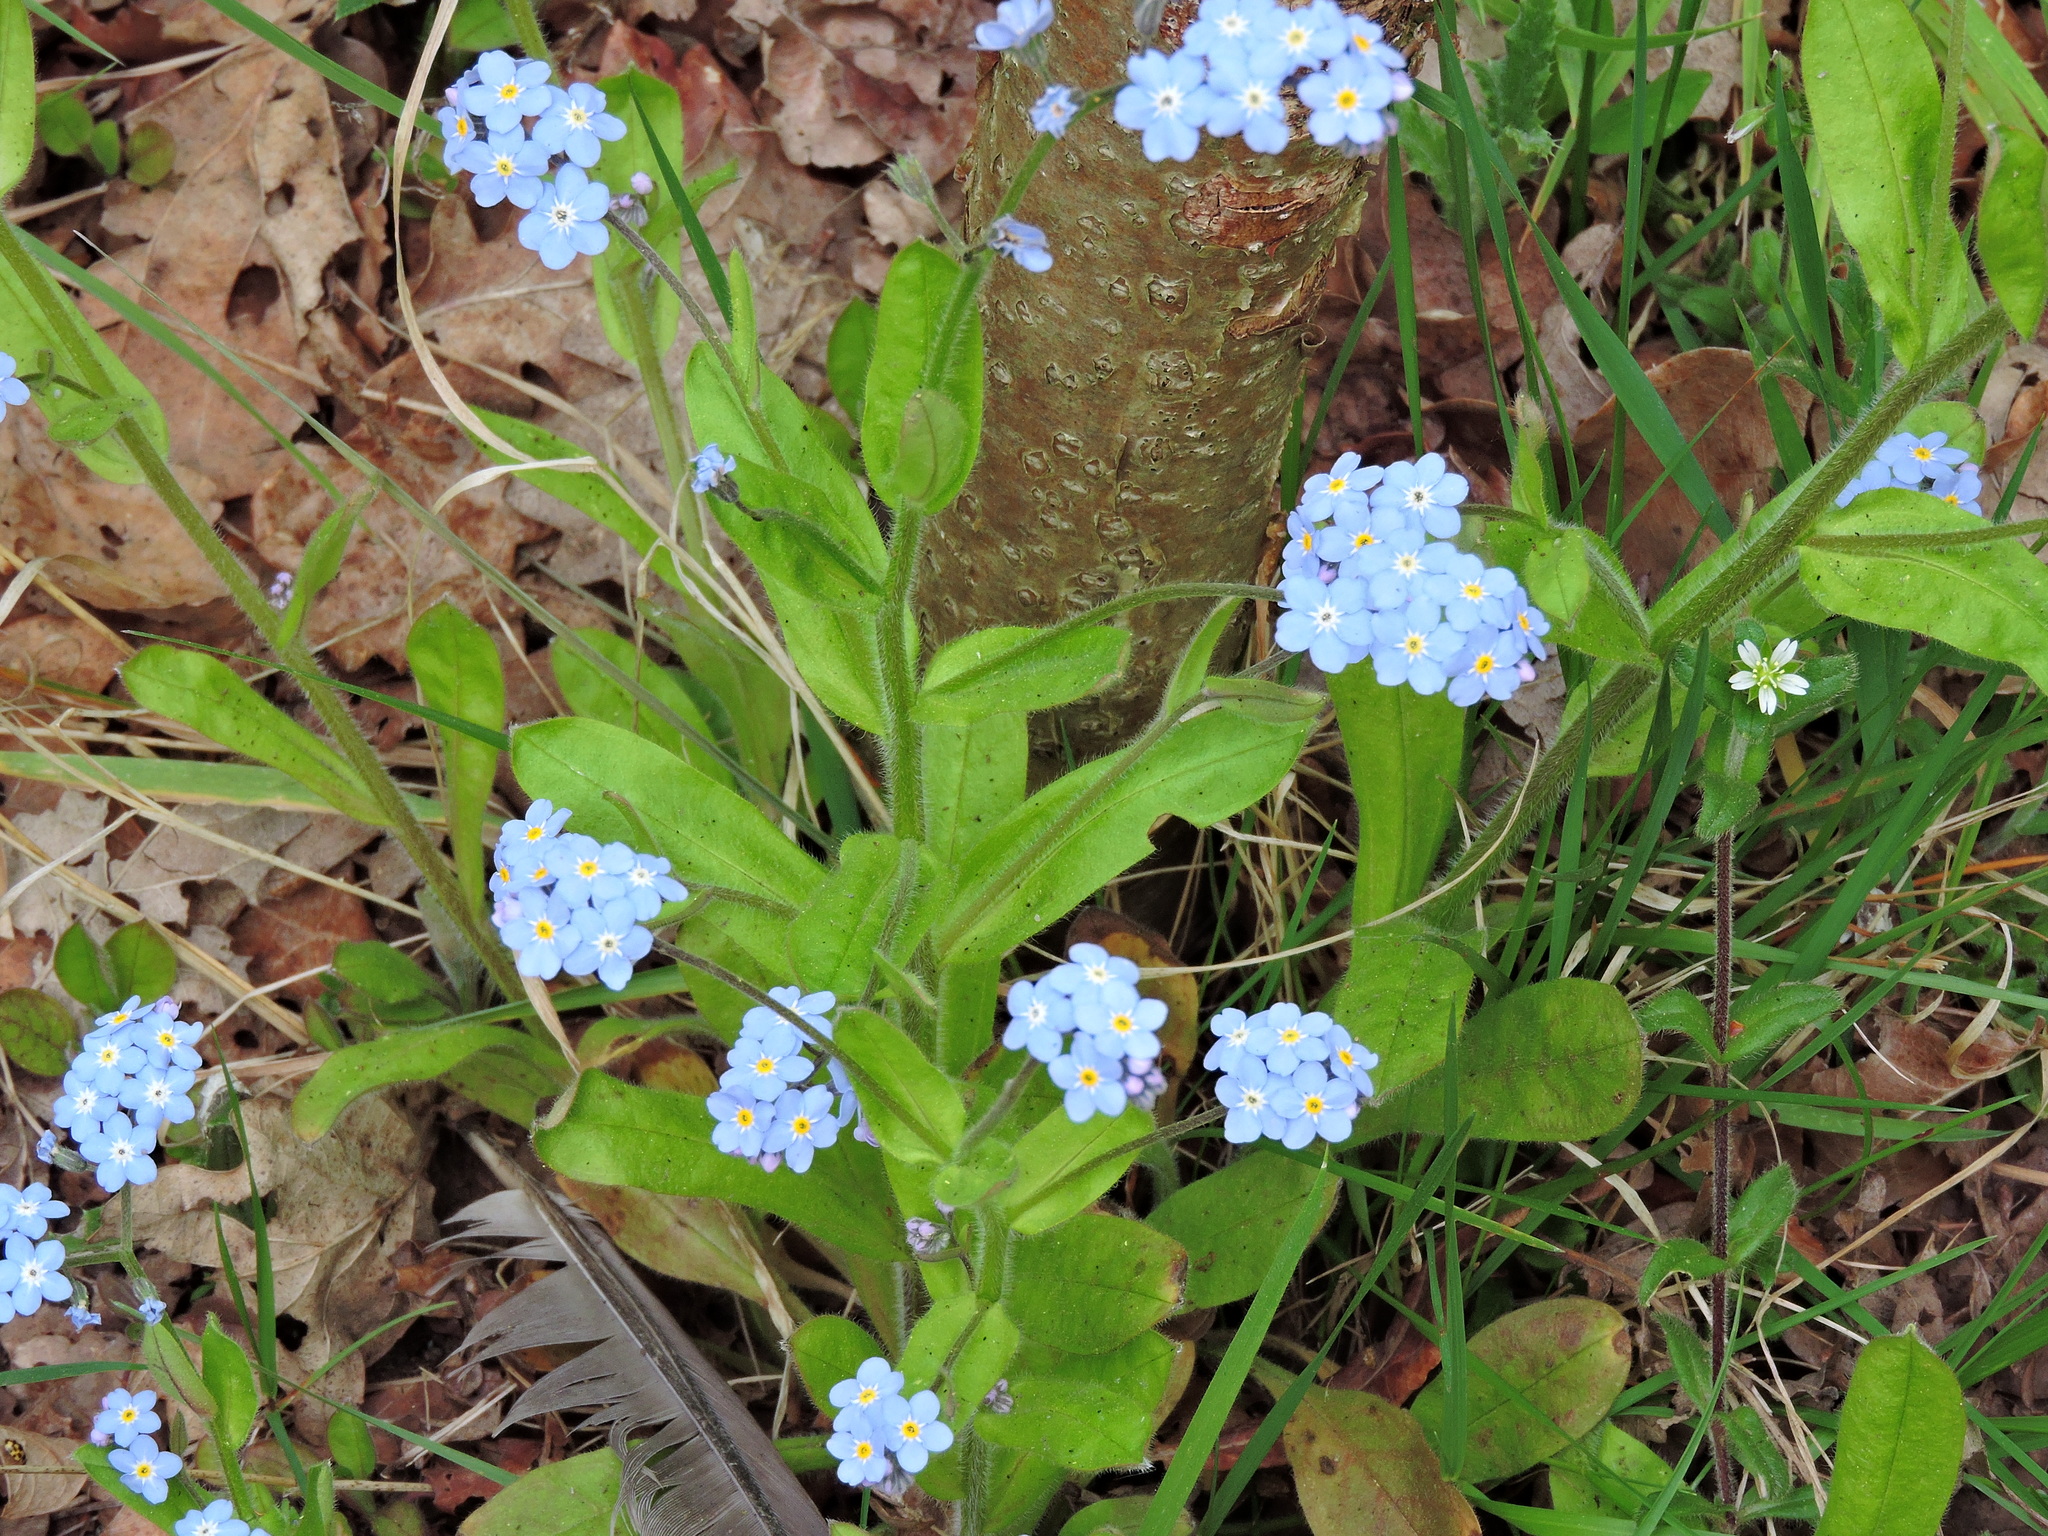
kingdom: Plantae
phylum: Tracheophyta
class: Magnoliopsida
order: Boraginales
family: Boraginaceae
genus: Myosotis
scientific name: Myosotis sylvatica
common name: Wood forget-me-not
